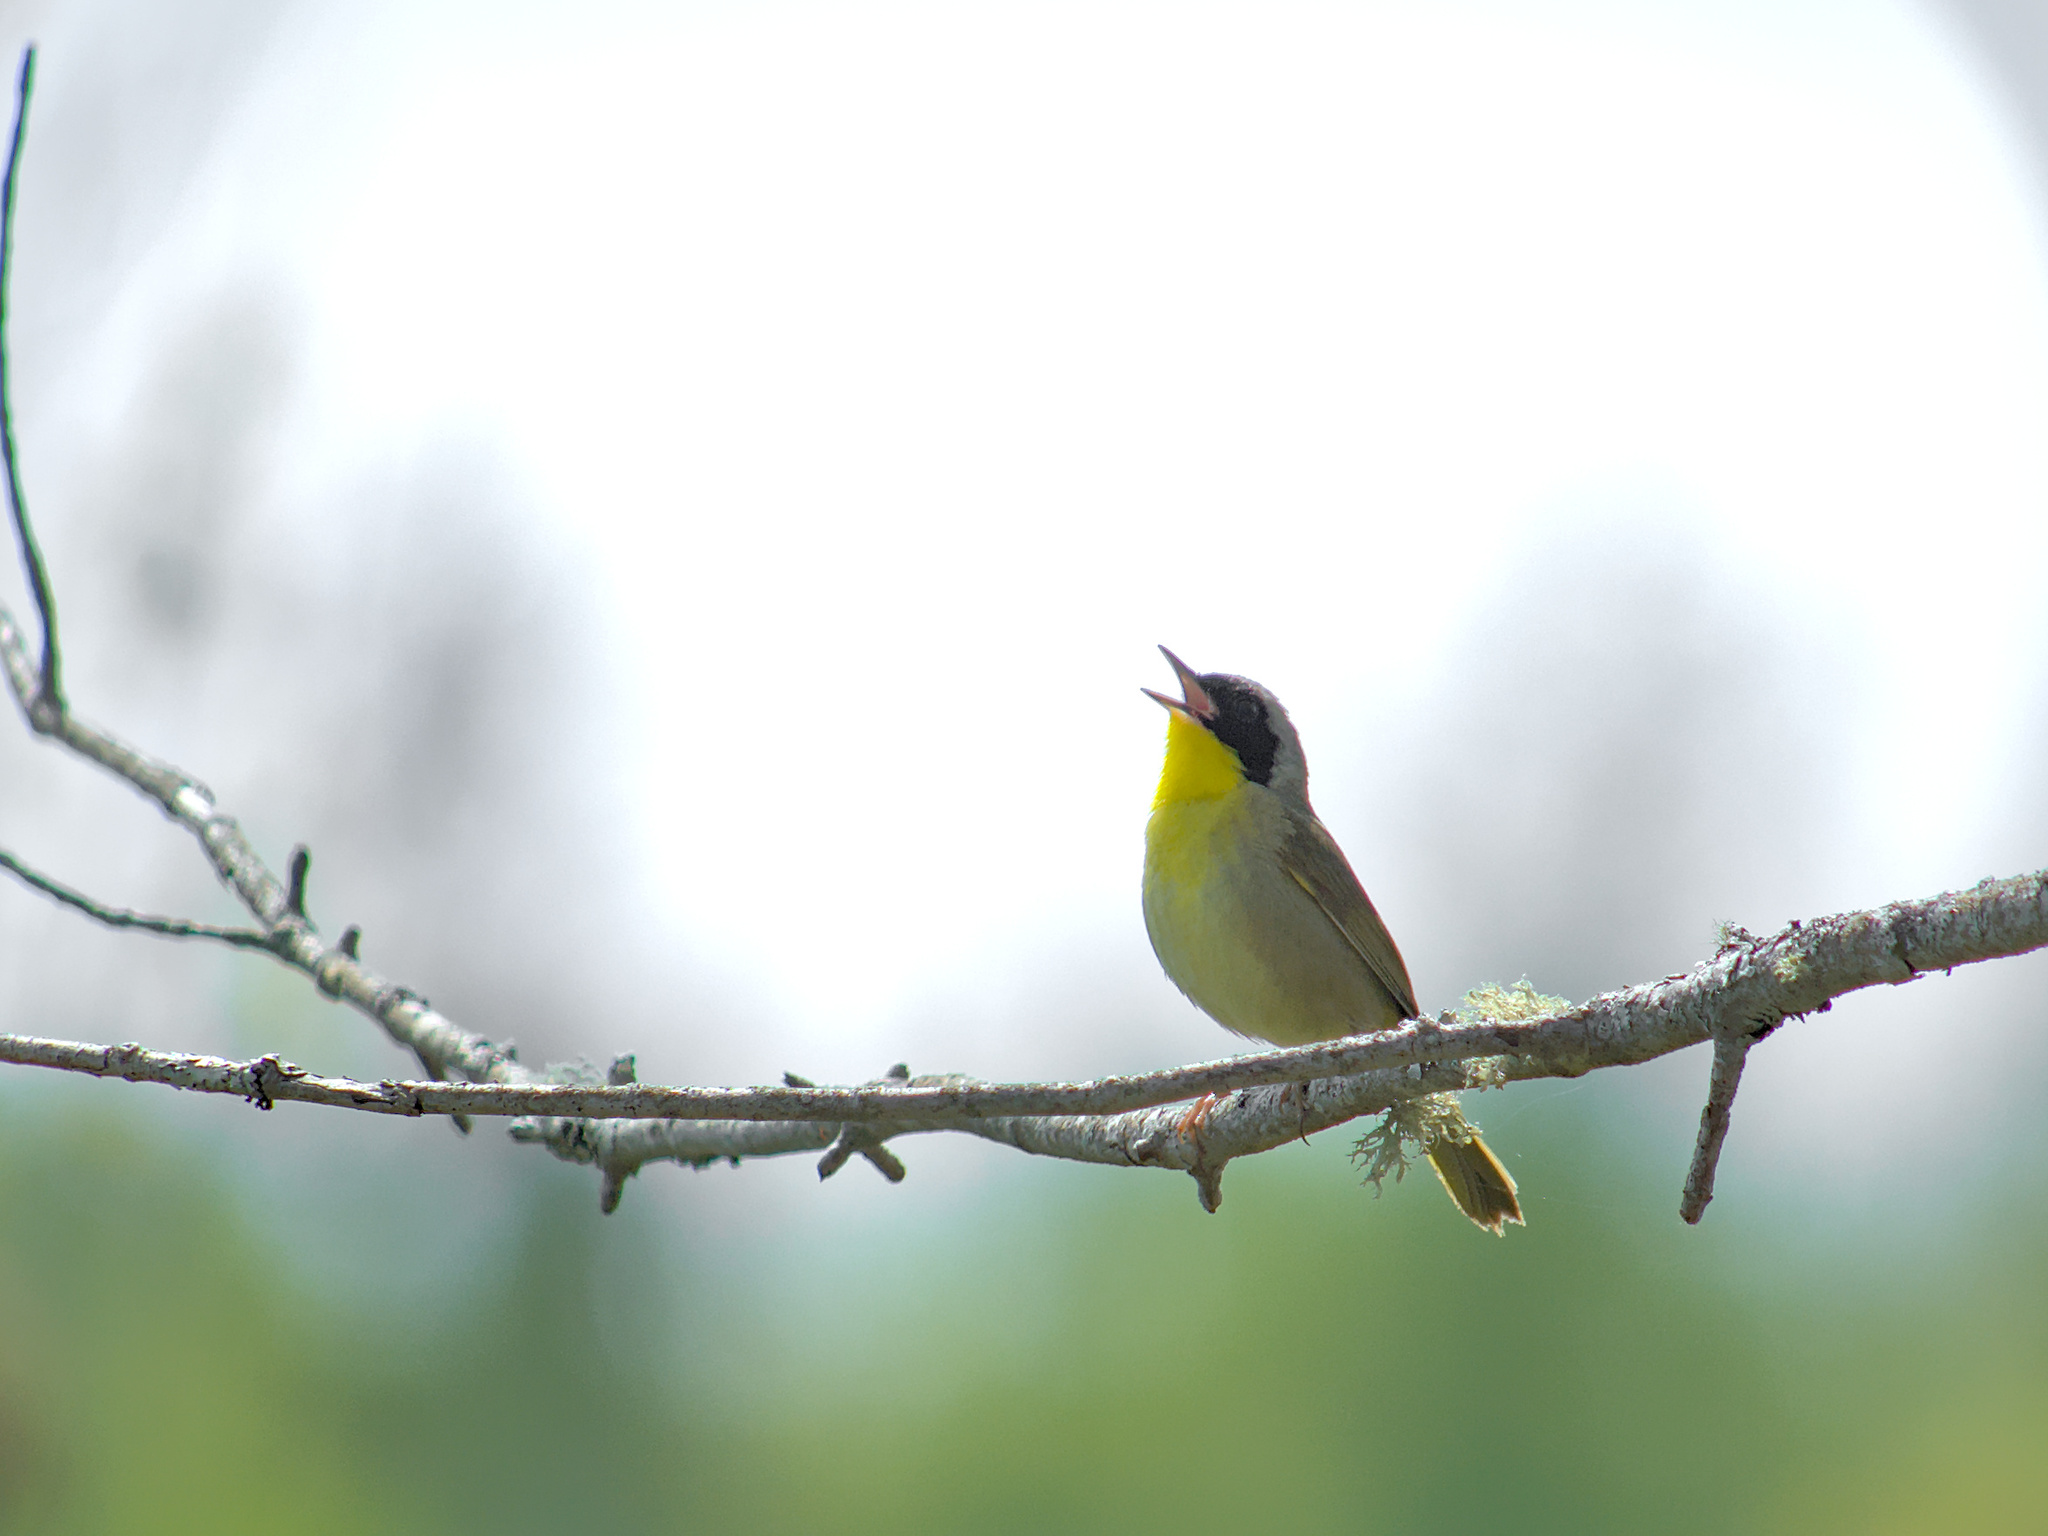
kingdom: Animalia
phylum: Chordata
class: Aves
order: Passeriformes
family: Parulidae
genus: Geothlypis
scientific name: Geothlypis trichas
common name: Common yellowthroat
